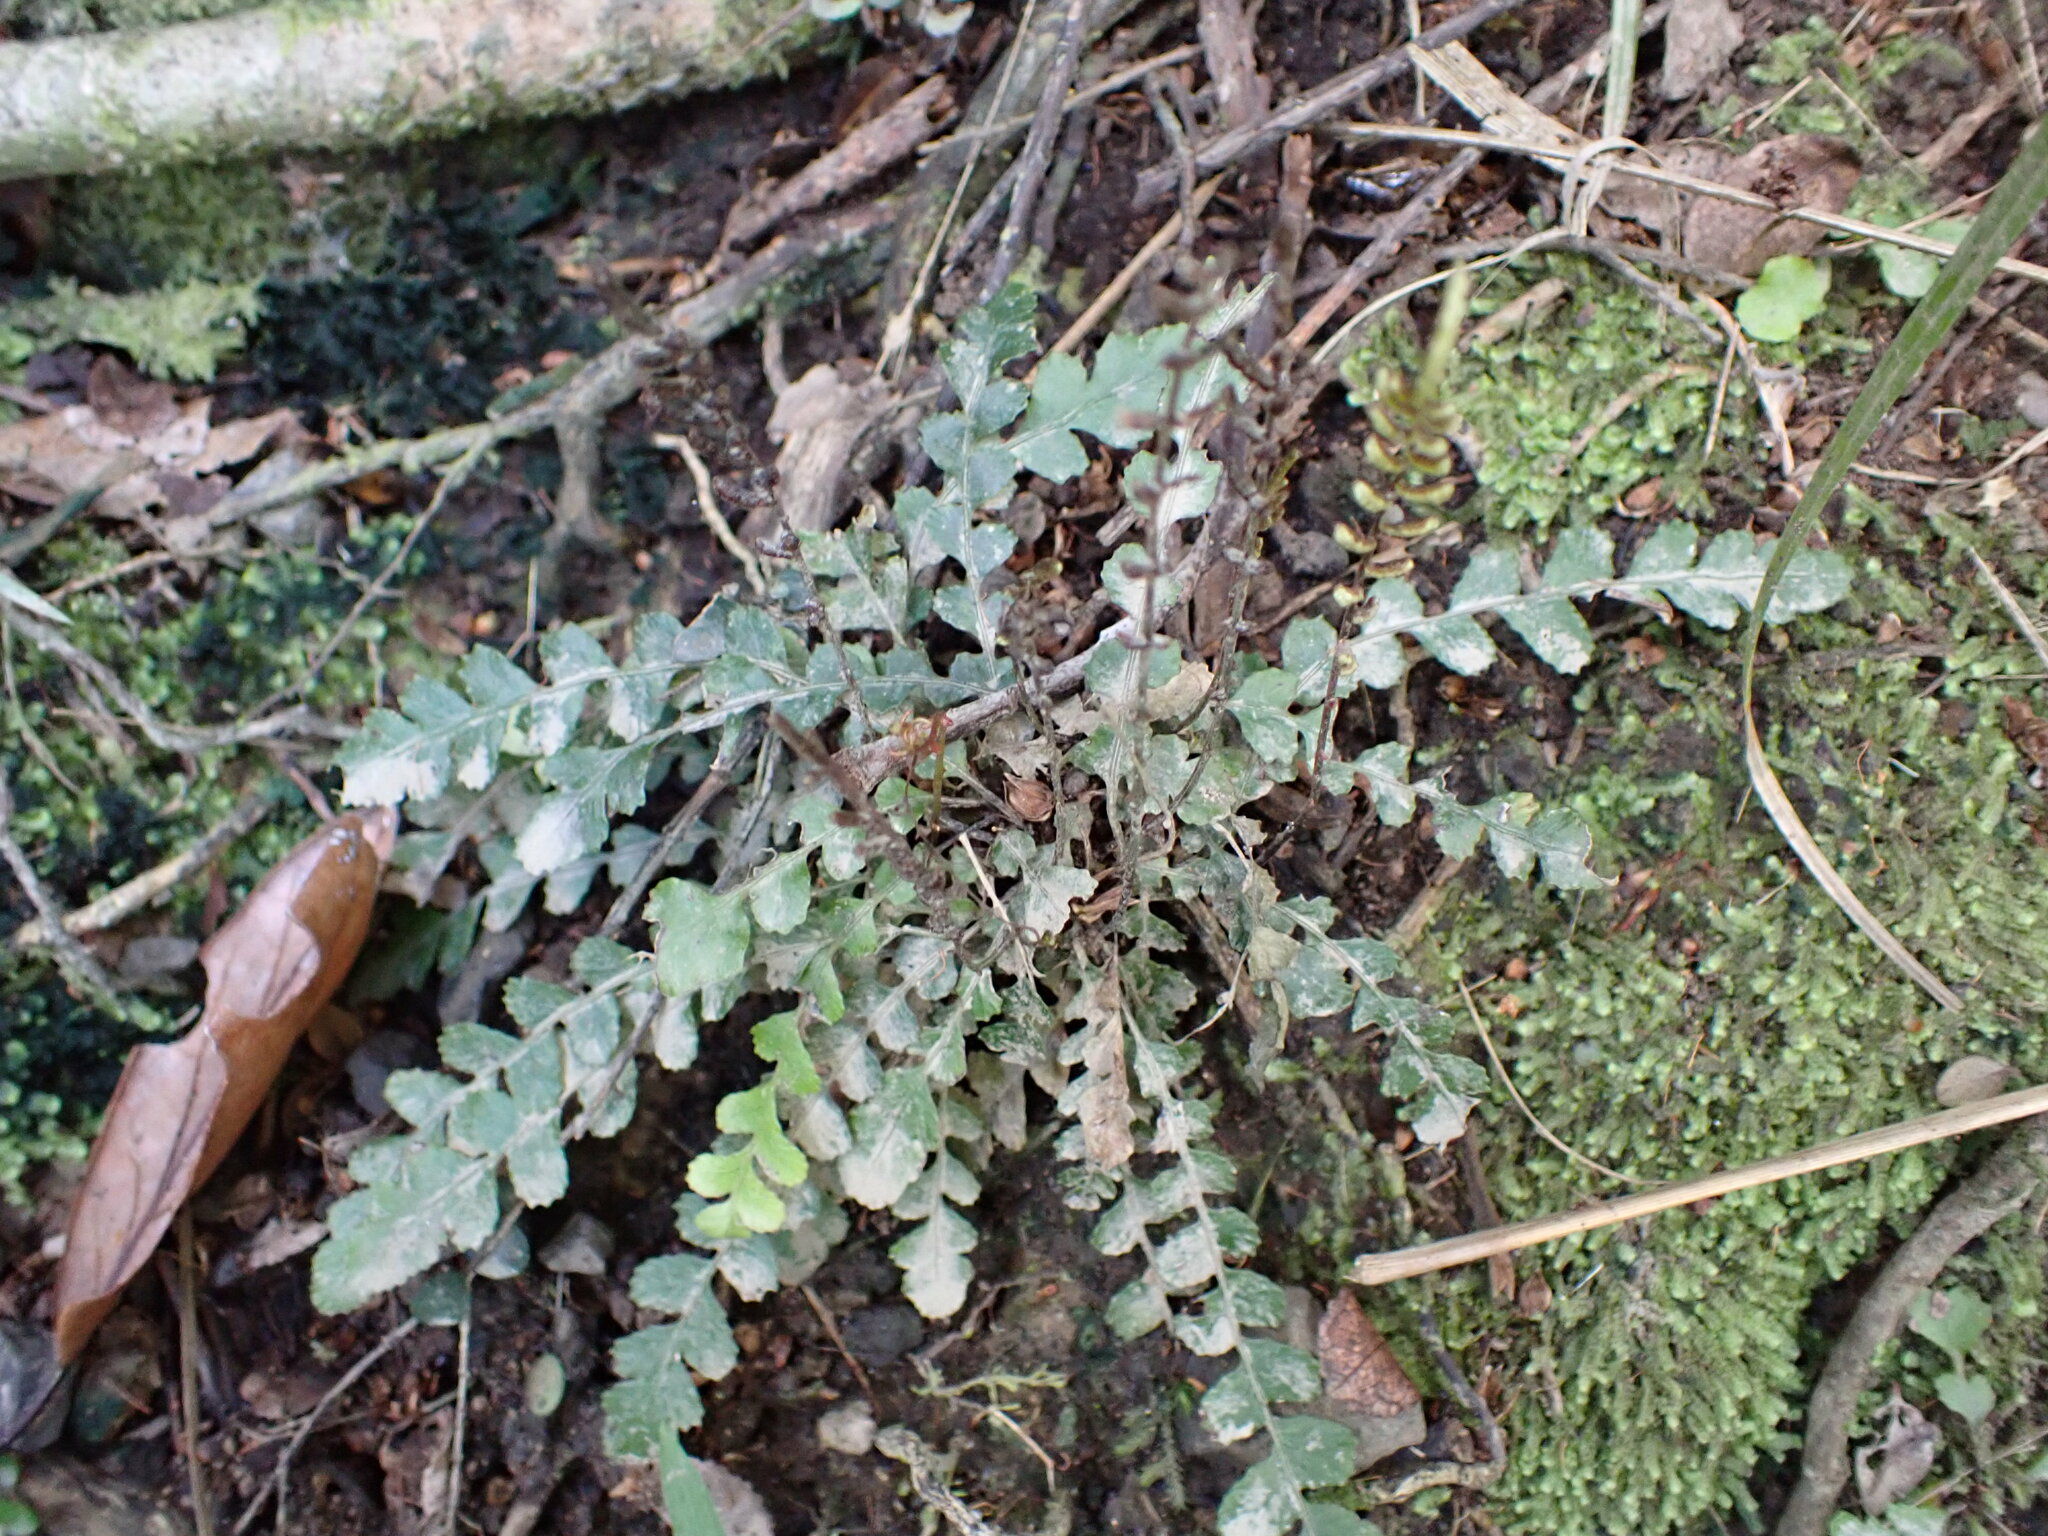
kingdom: Plantae
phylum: Tracheophyta
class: Polypodiopsida
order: Polypodiales
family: Blechnaceae
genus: Austroblechnum
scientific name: Austroblechnum membranaceum
